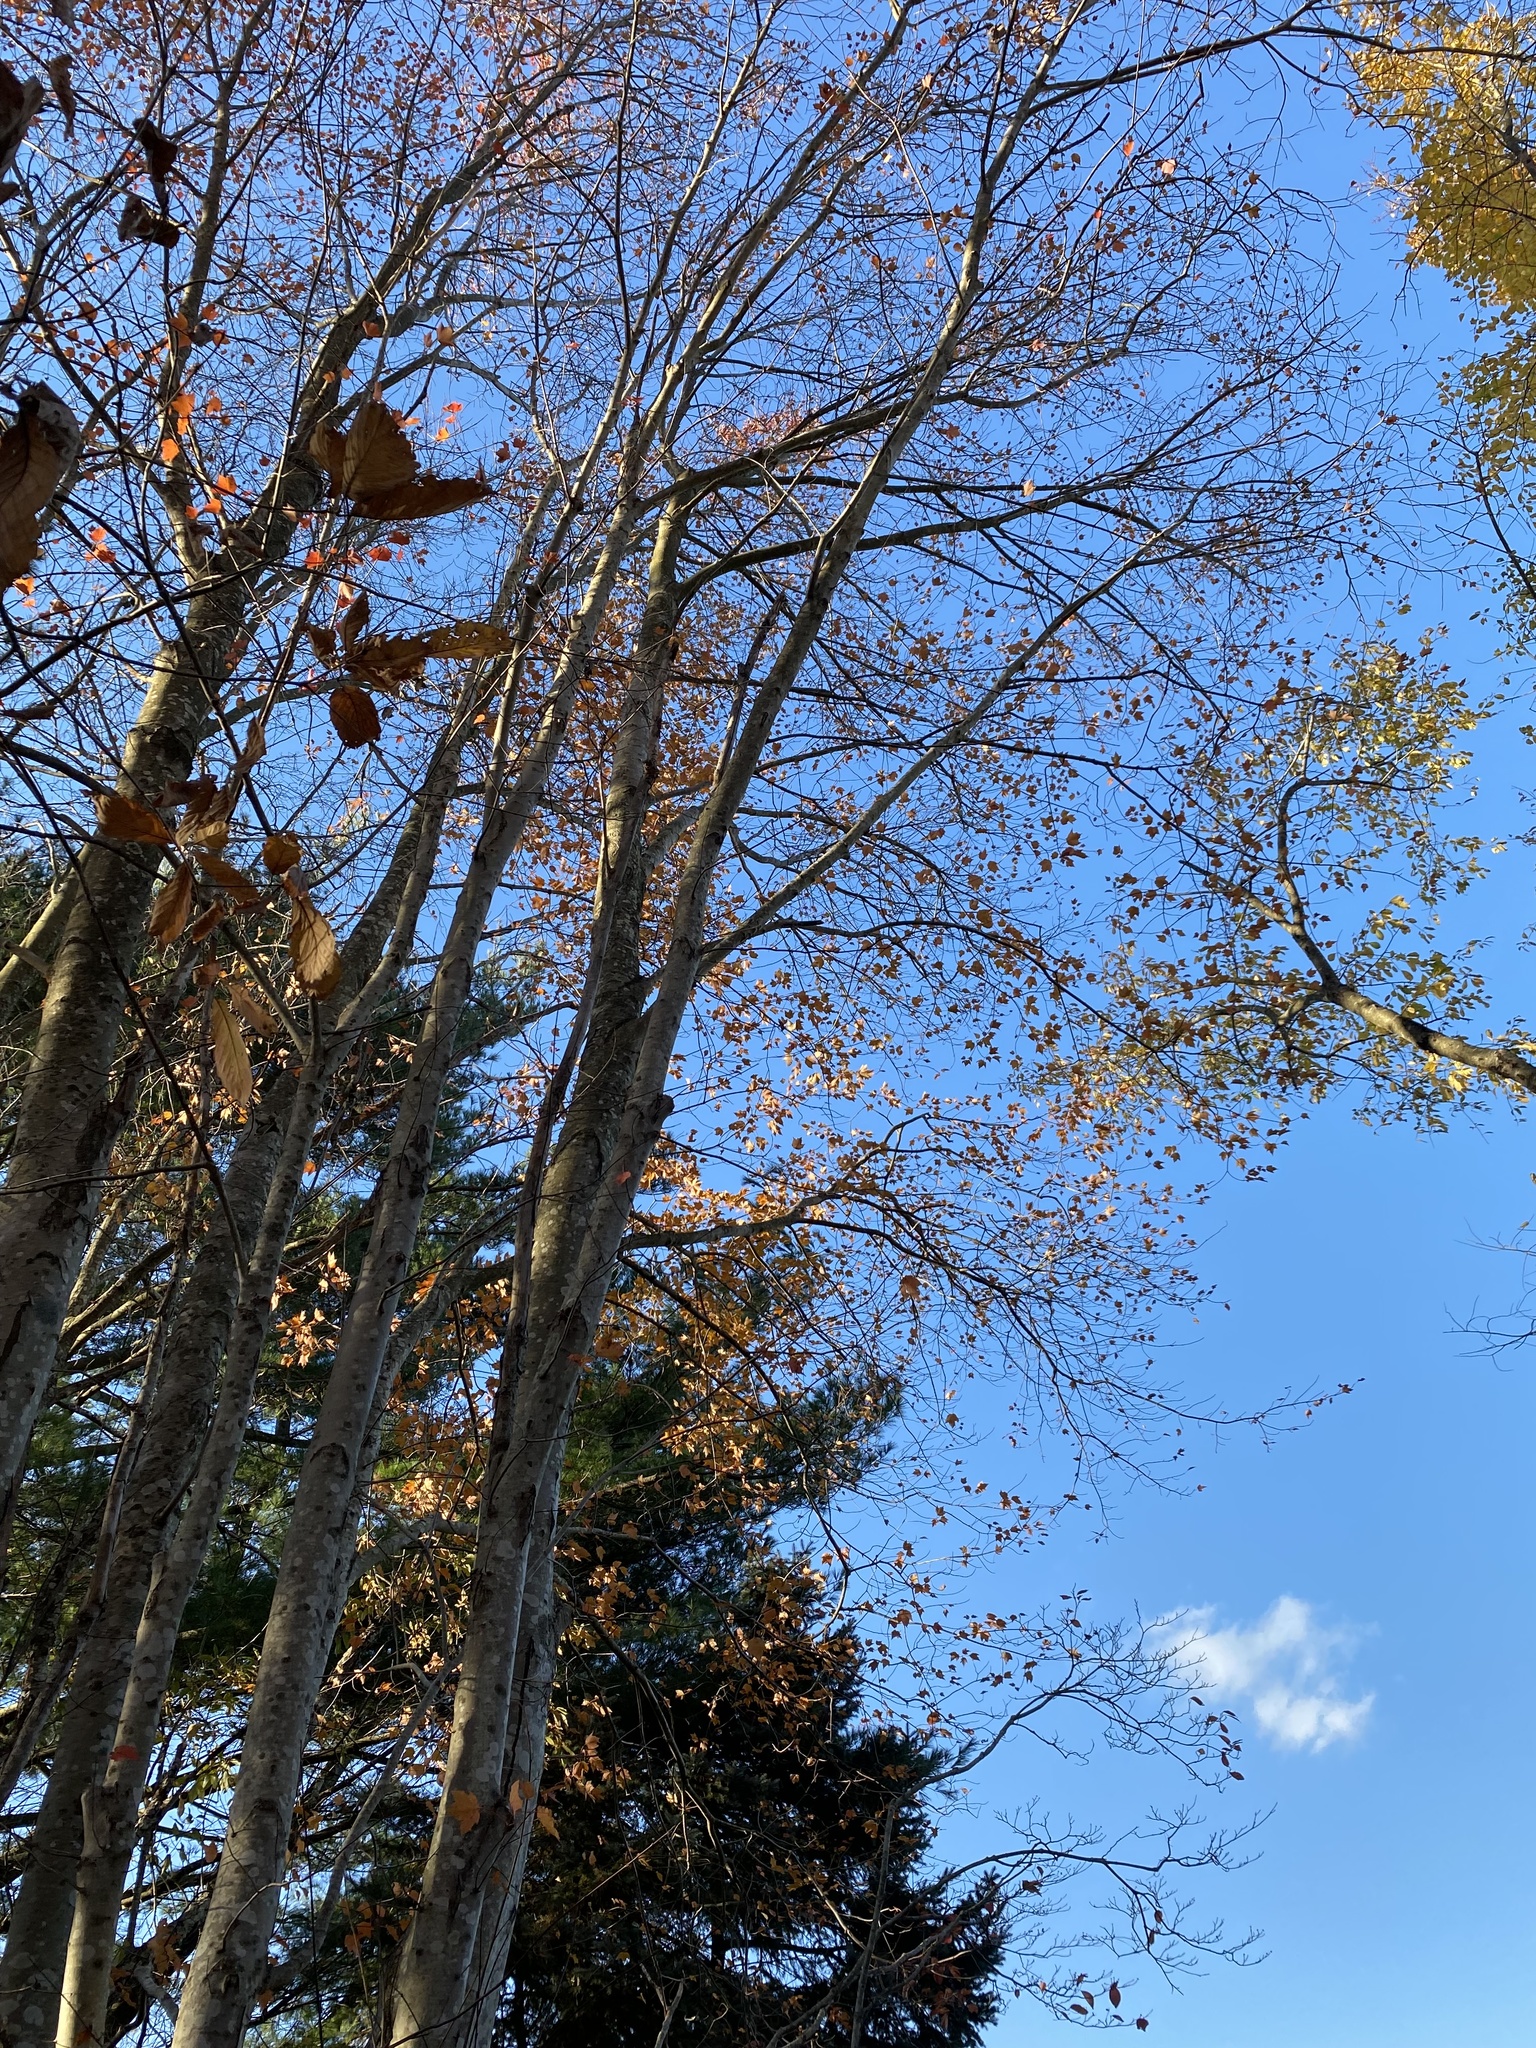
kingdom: Plantae
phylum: Tracheophyta
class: Magnoliopsida
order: Sapindales
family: Sapindaceae
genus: Acer
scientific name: Acer rubrum
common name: Red maple
